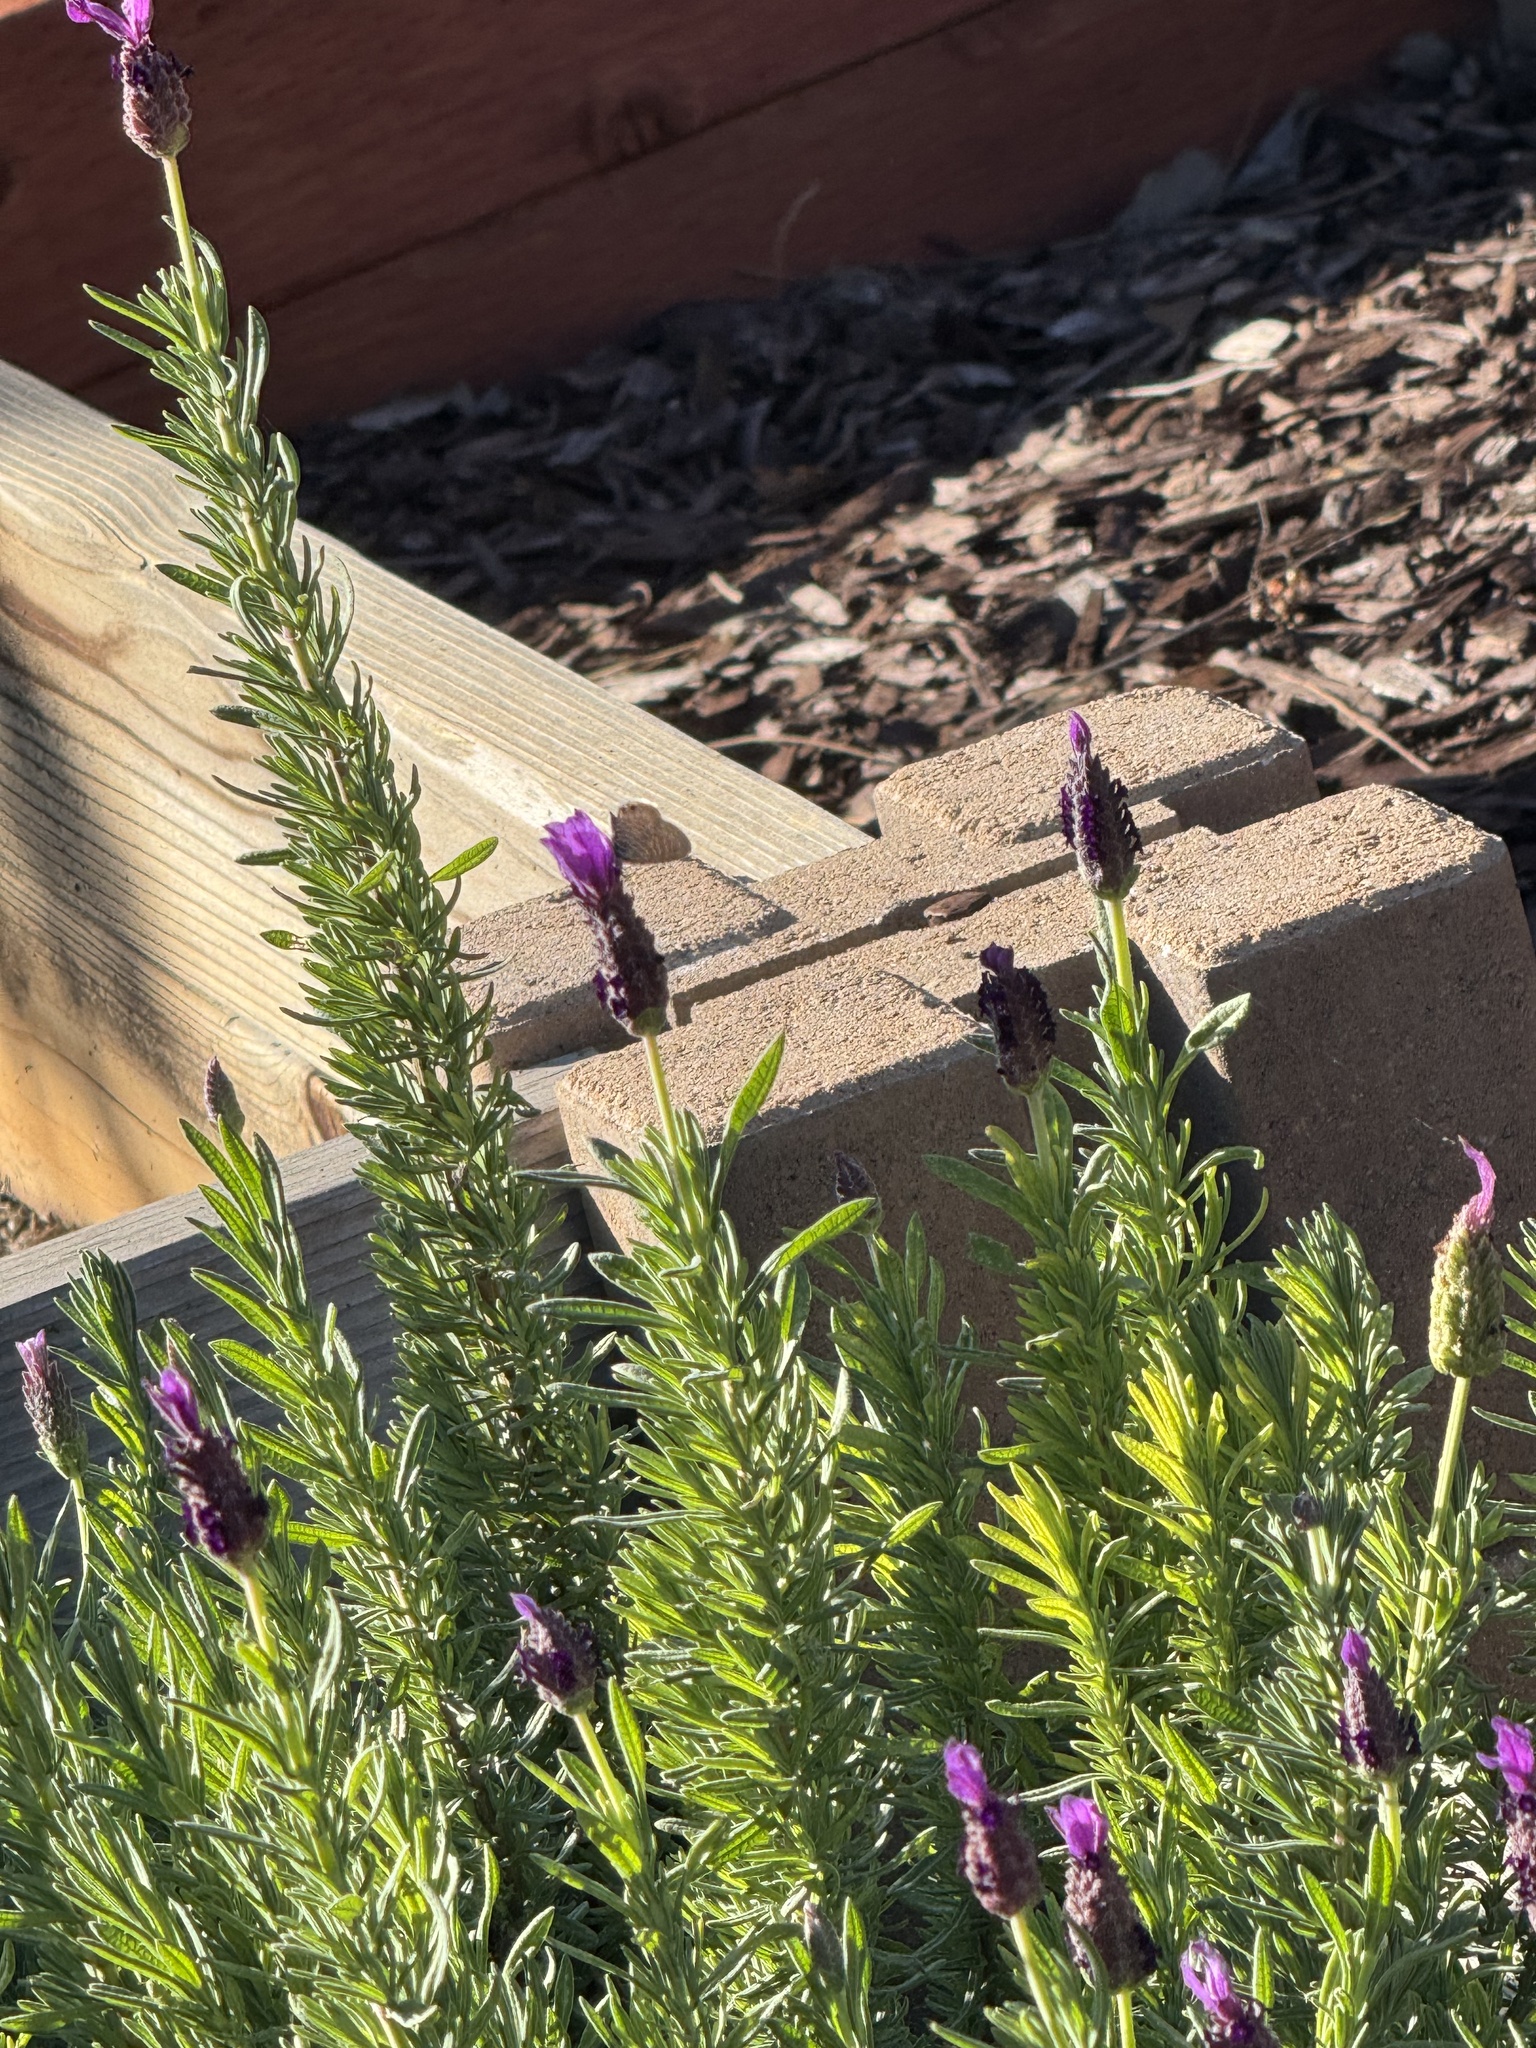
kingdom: Animalia
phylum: Arthropoda
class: Insecta
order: Lepidoptera
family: Lycaenidae
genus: Leptotes
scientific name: Leptotes marina
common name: Marine blue
